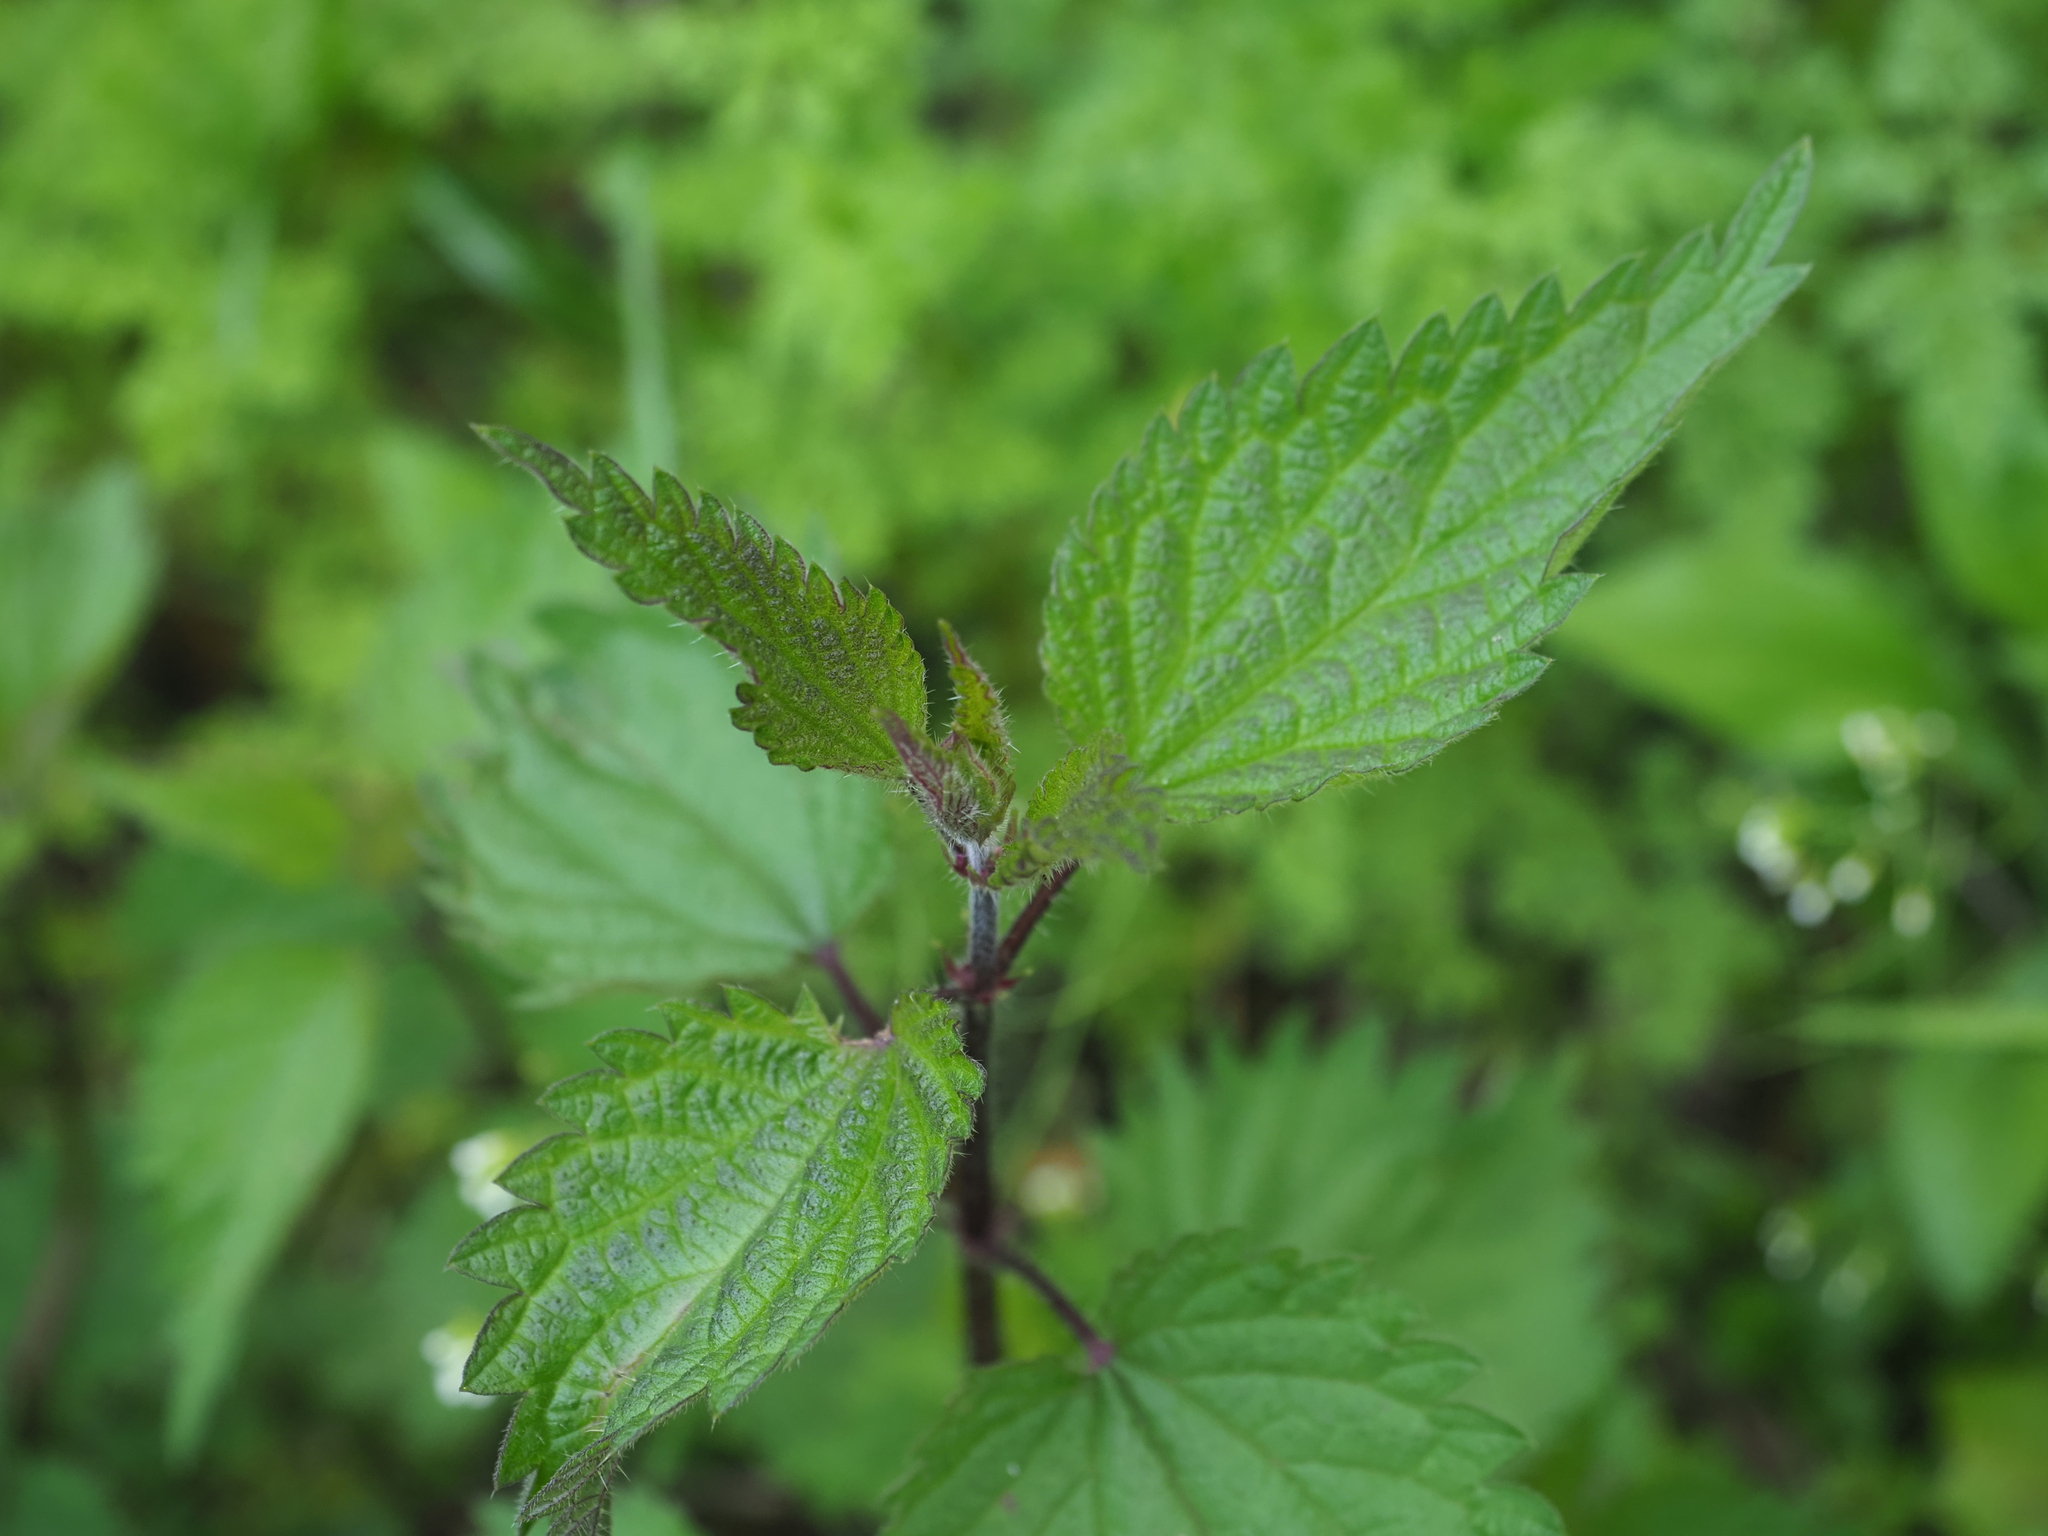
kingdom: Plantae
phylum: Tracheophyta
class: Magnoliopsida
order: Rosales
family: Urticaceae
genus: Urtica
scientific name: Urtica dioica
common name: Common nettle
